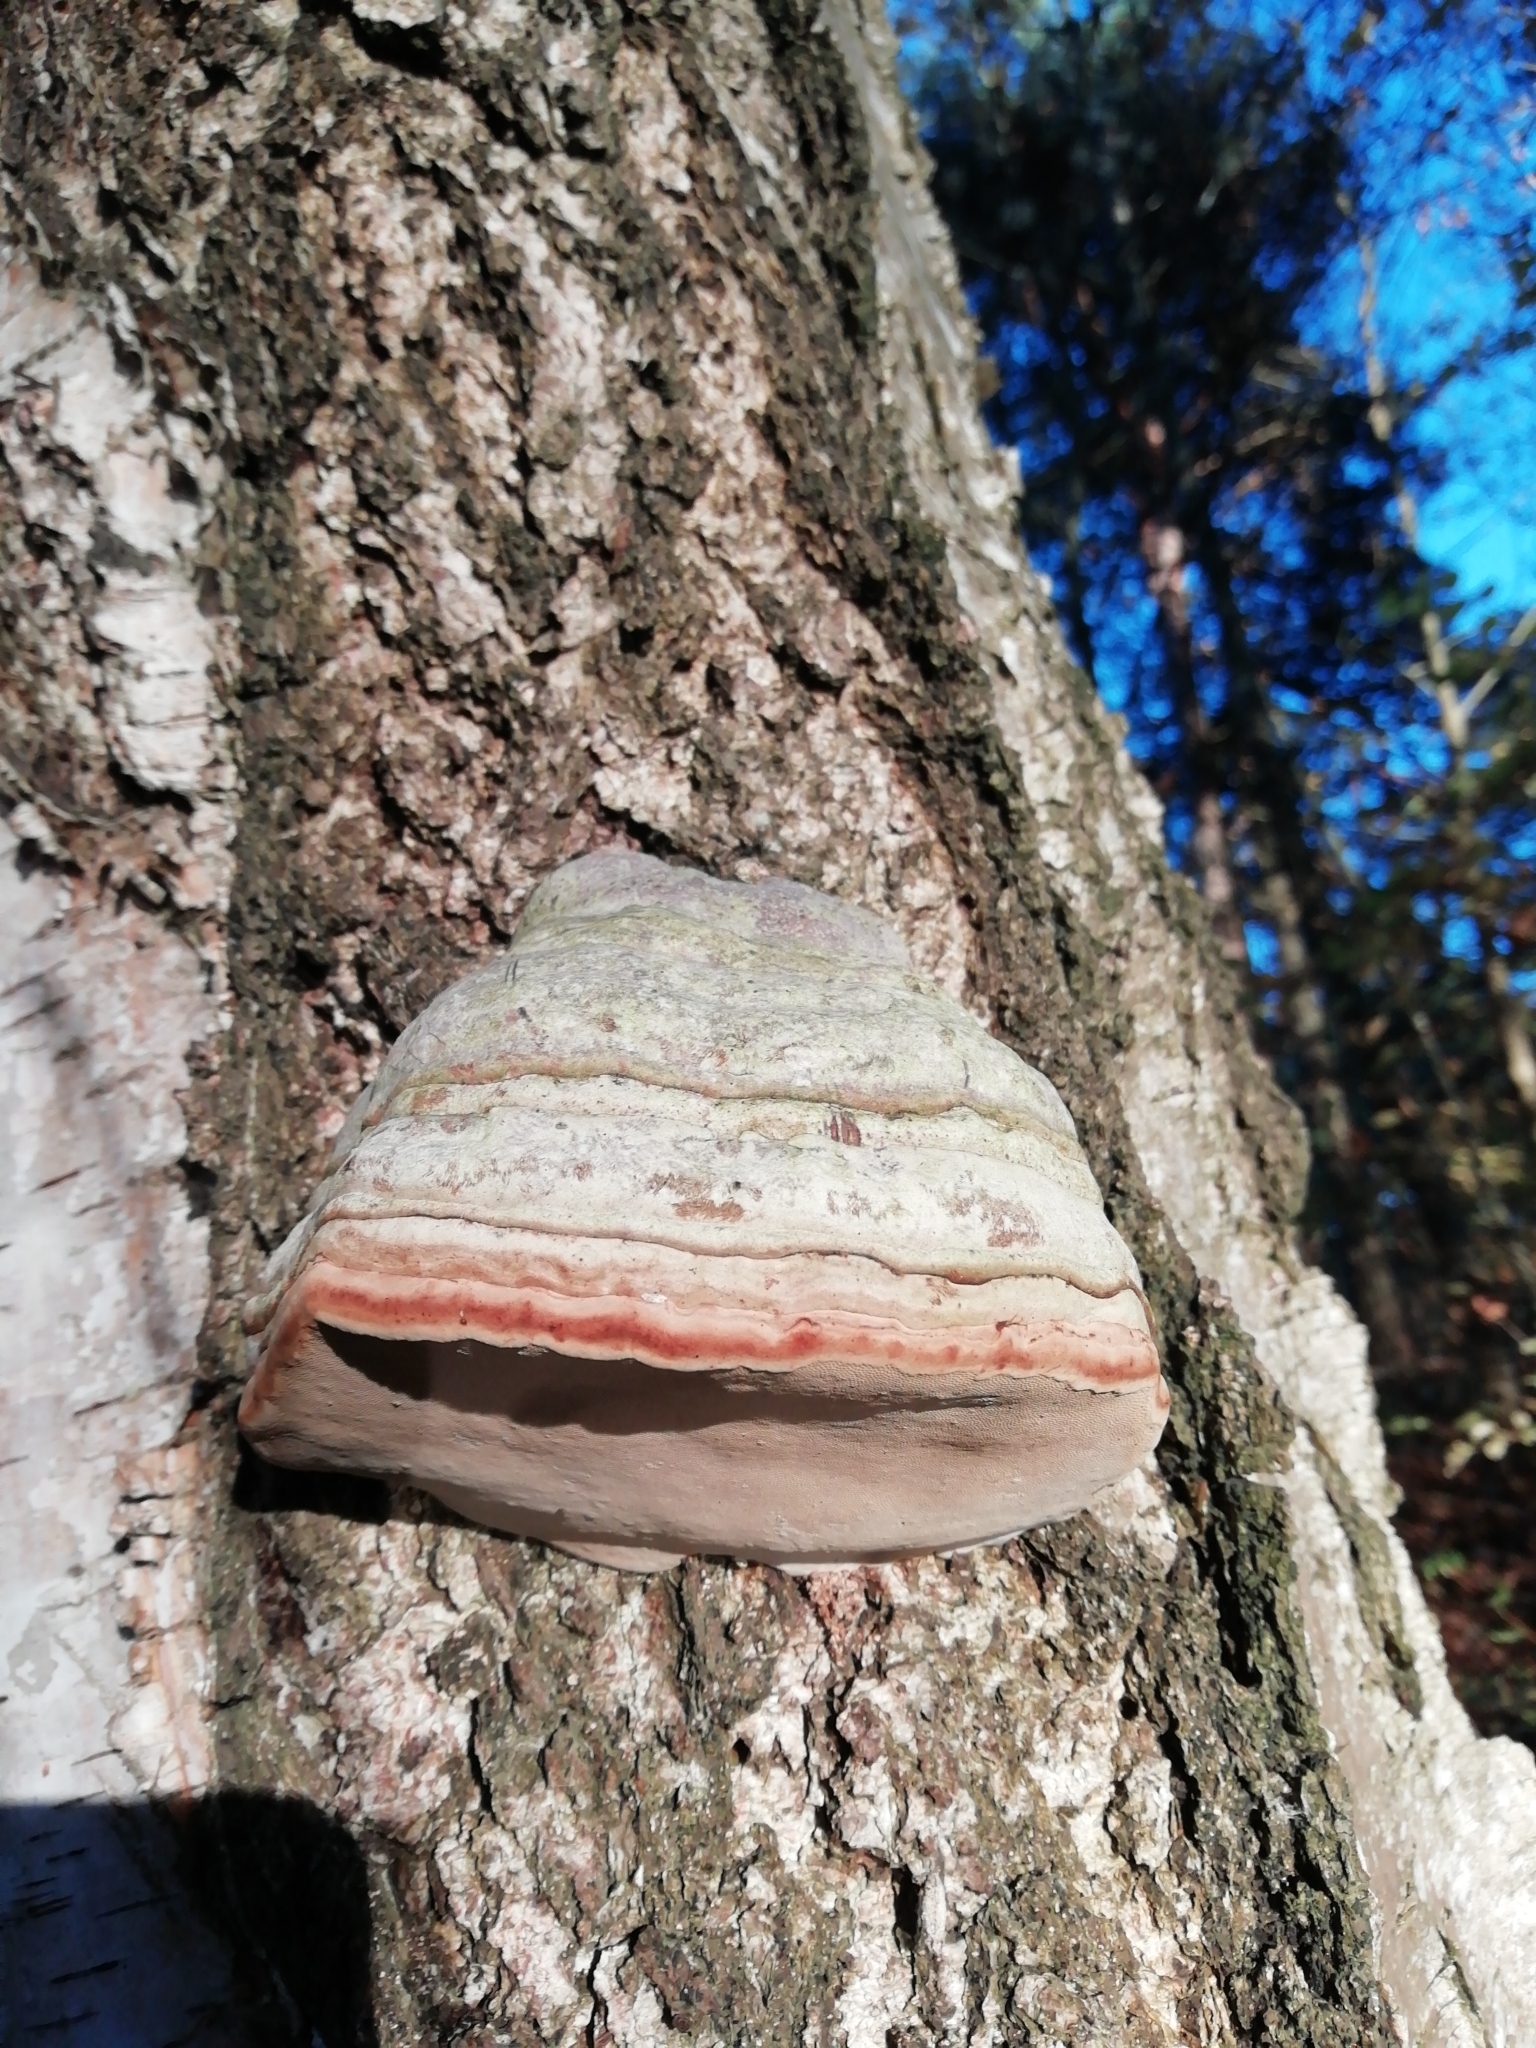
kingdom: Fungi
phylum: Basidiomycota
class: Agaricomycetes
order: Polyporales
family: Polyporaceae
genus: Fomes
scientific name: Fomes fomentarius
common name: Hoof fungus
